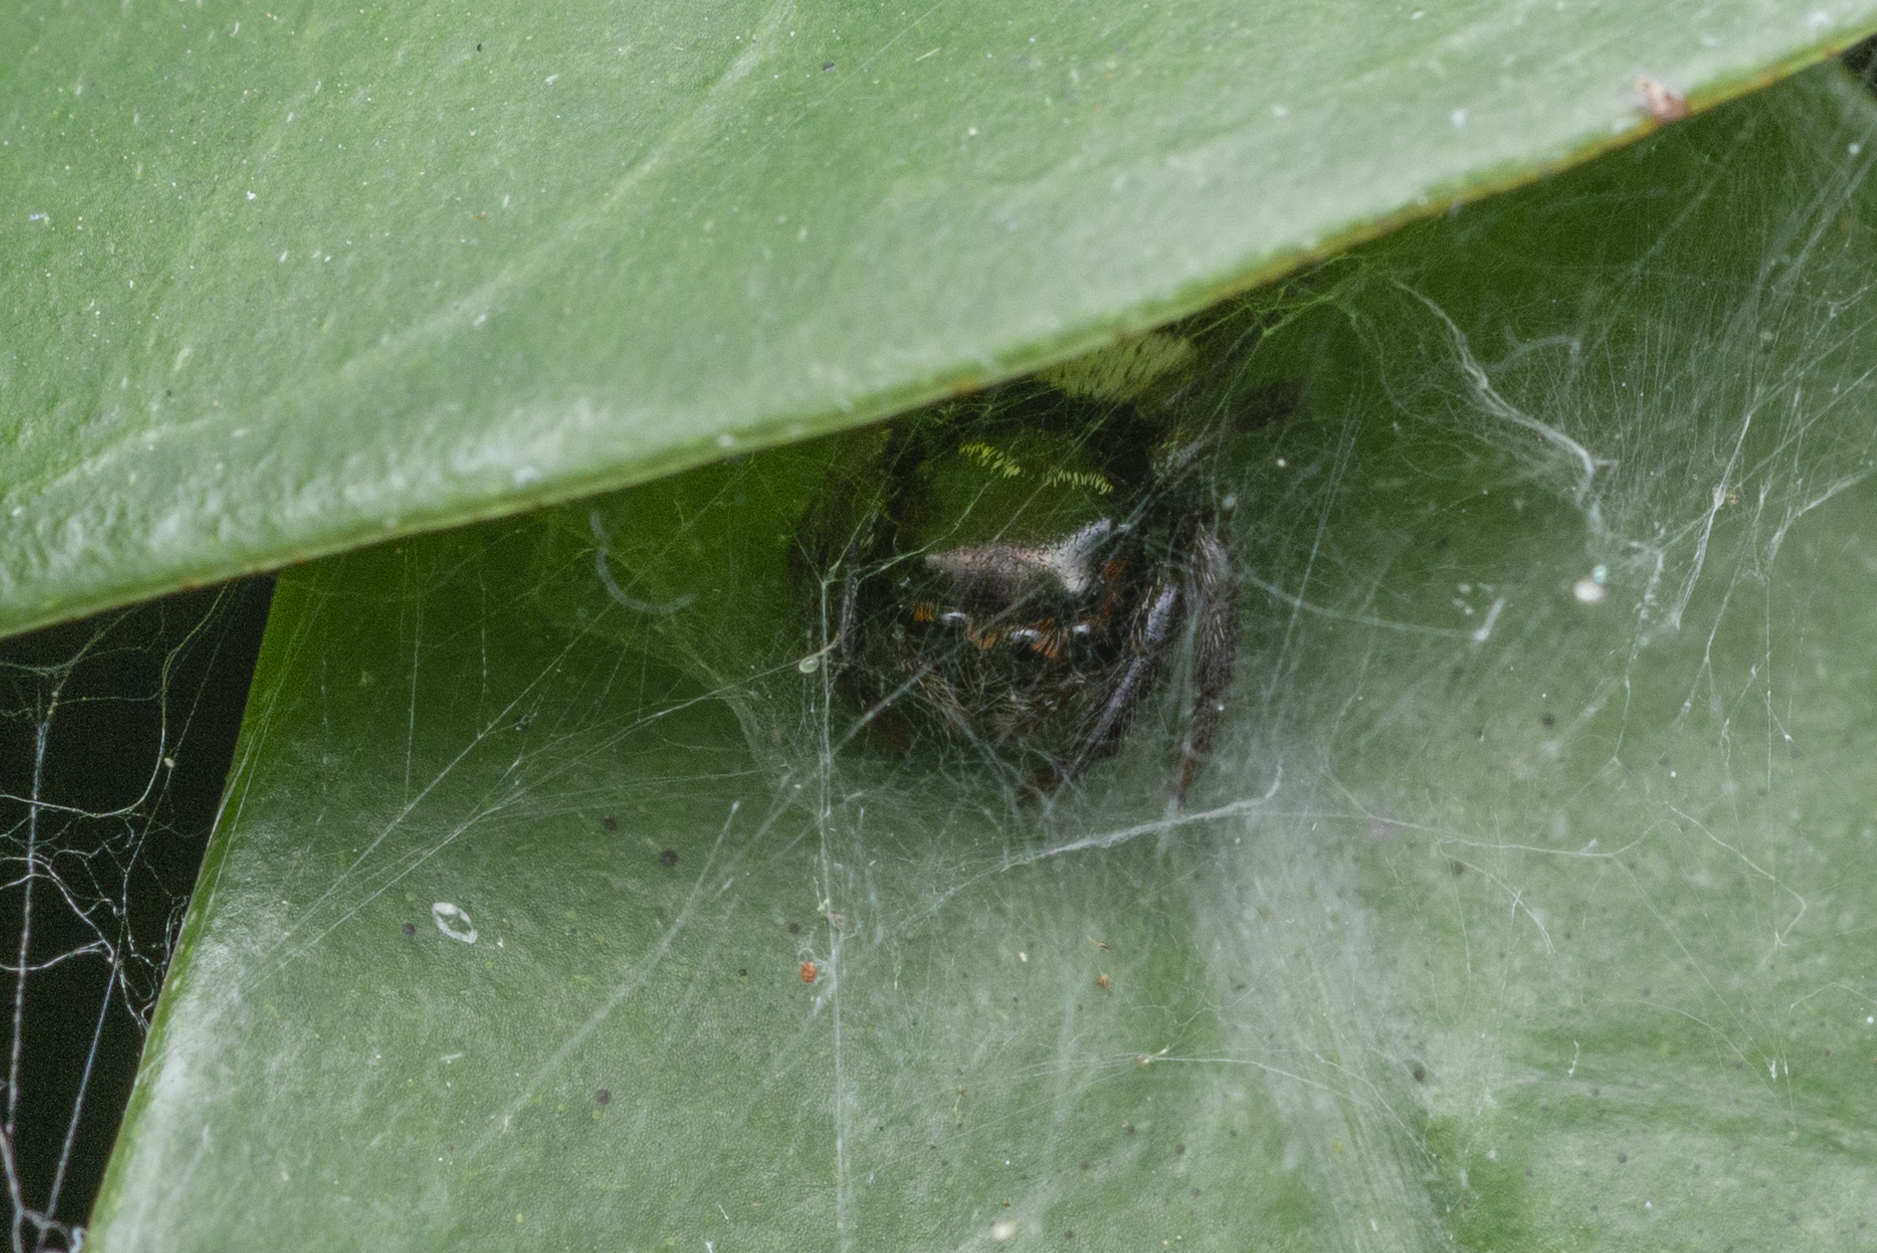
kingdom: Animalia
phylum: Arthropoda
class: Arachnida
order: Araneae
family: Salticidae
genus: Ptocasius
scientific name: Ptocasius strupifer
